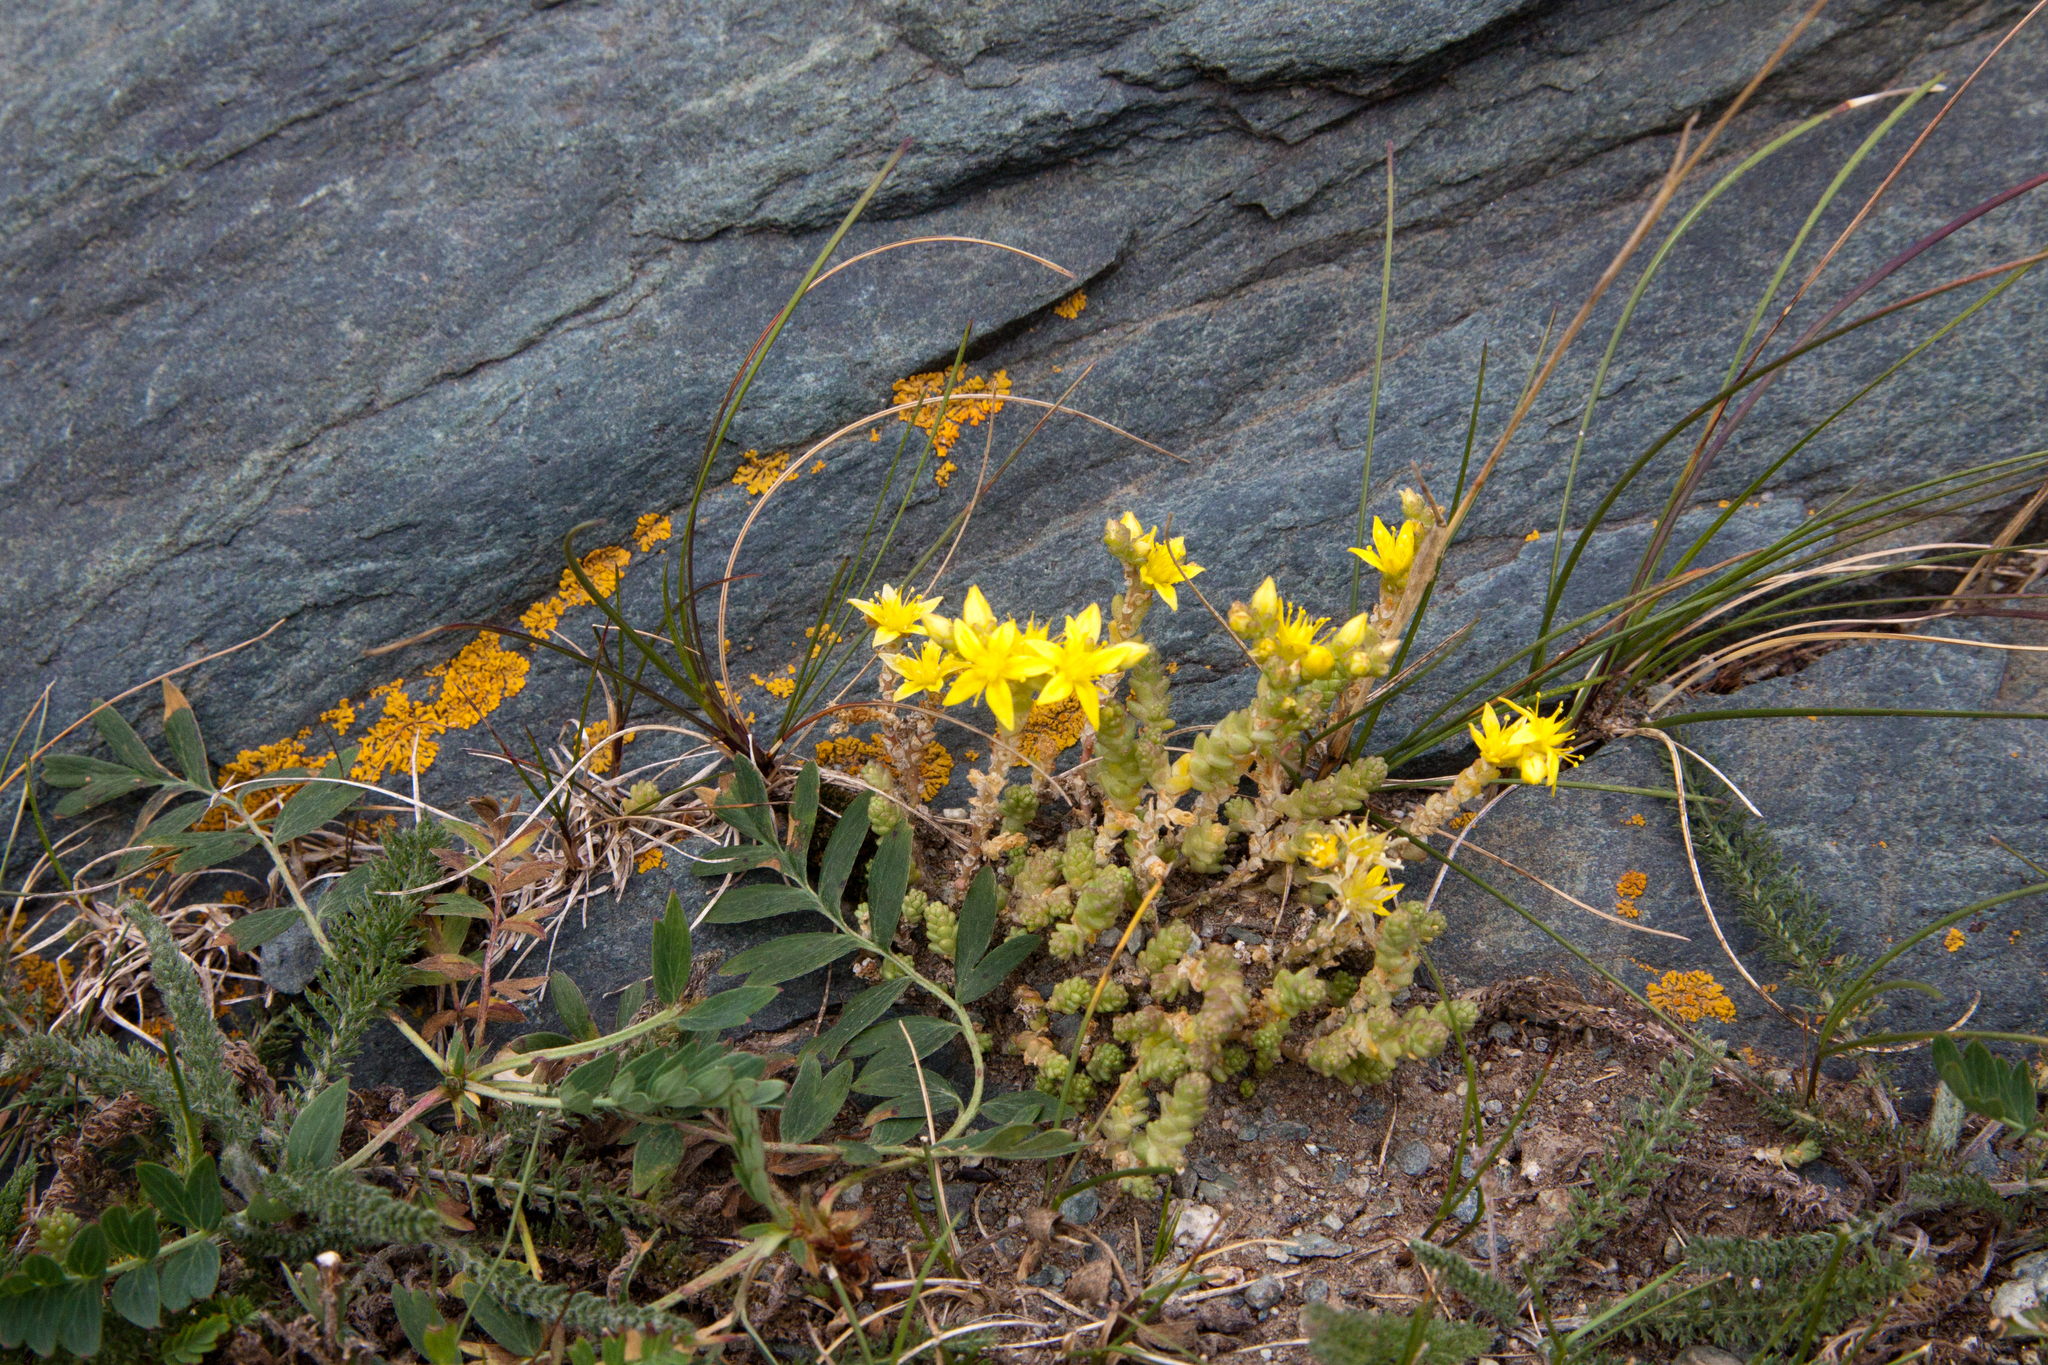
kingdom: Plantae
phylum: Tracheophyta
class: Magnoliopsida
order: Saxifragales
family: Crassulaceae
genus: Sedum
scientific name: Sedum acre
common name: Biting stonecrop
